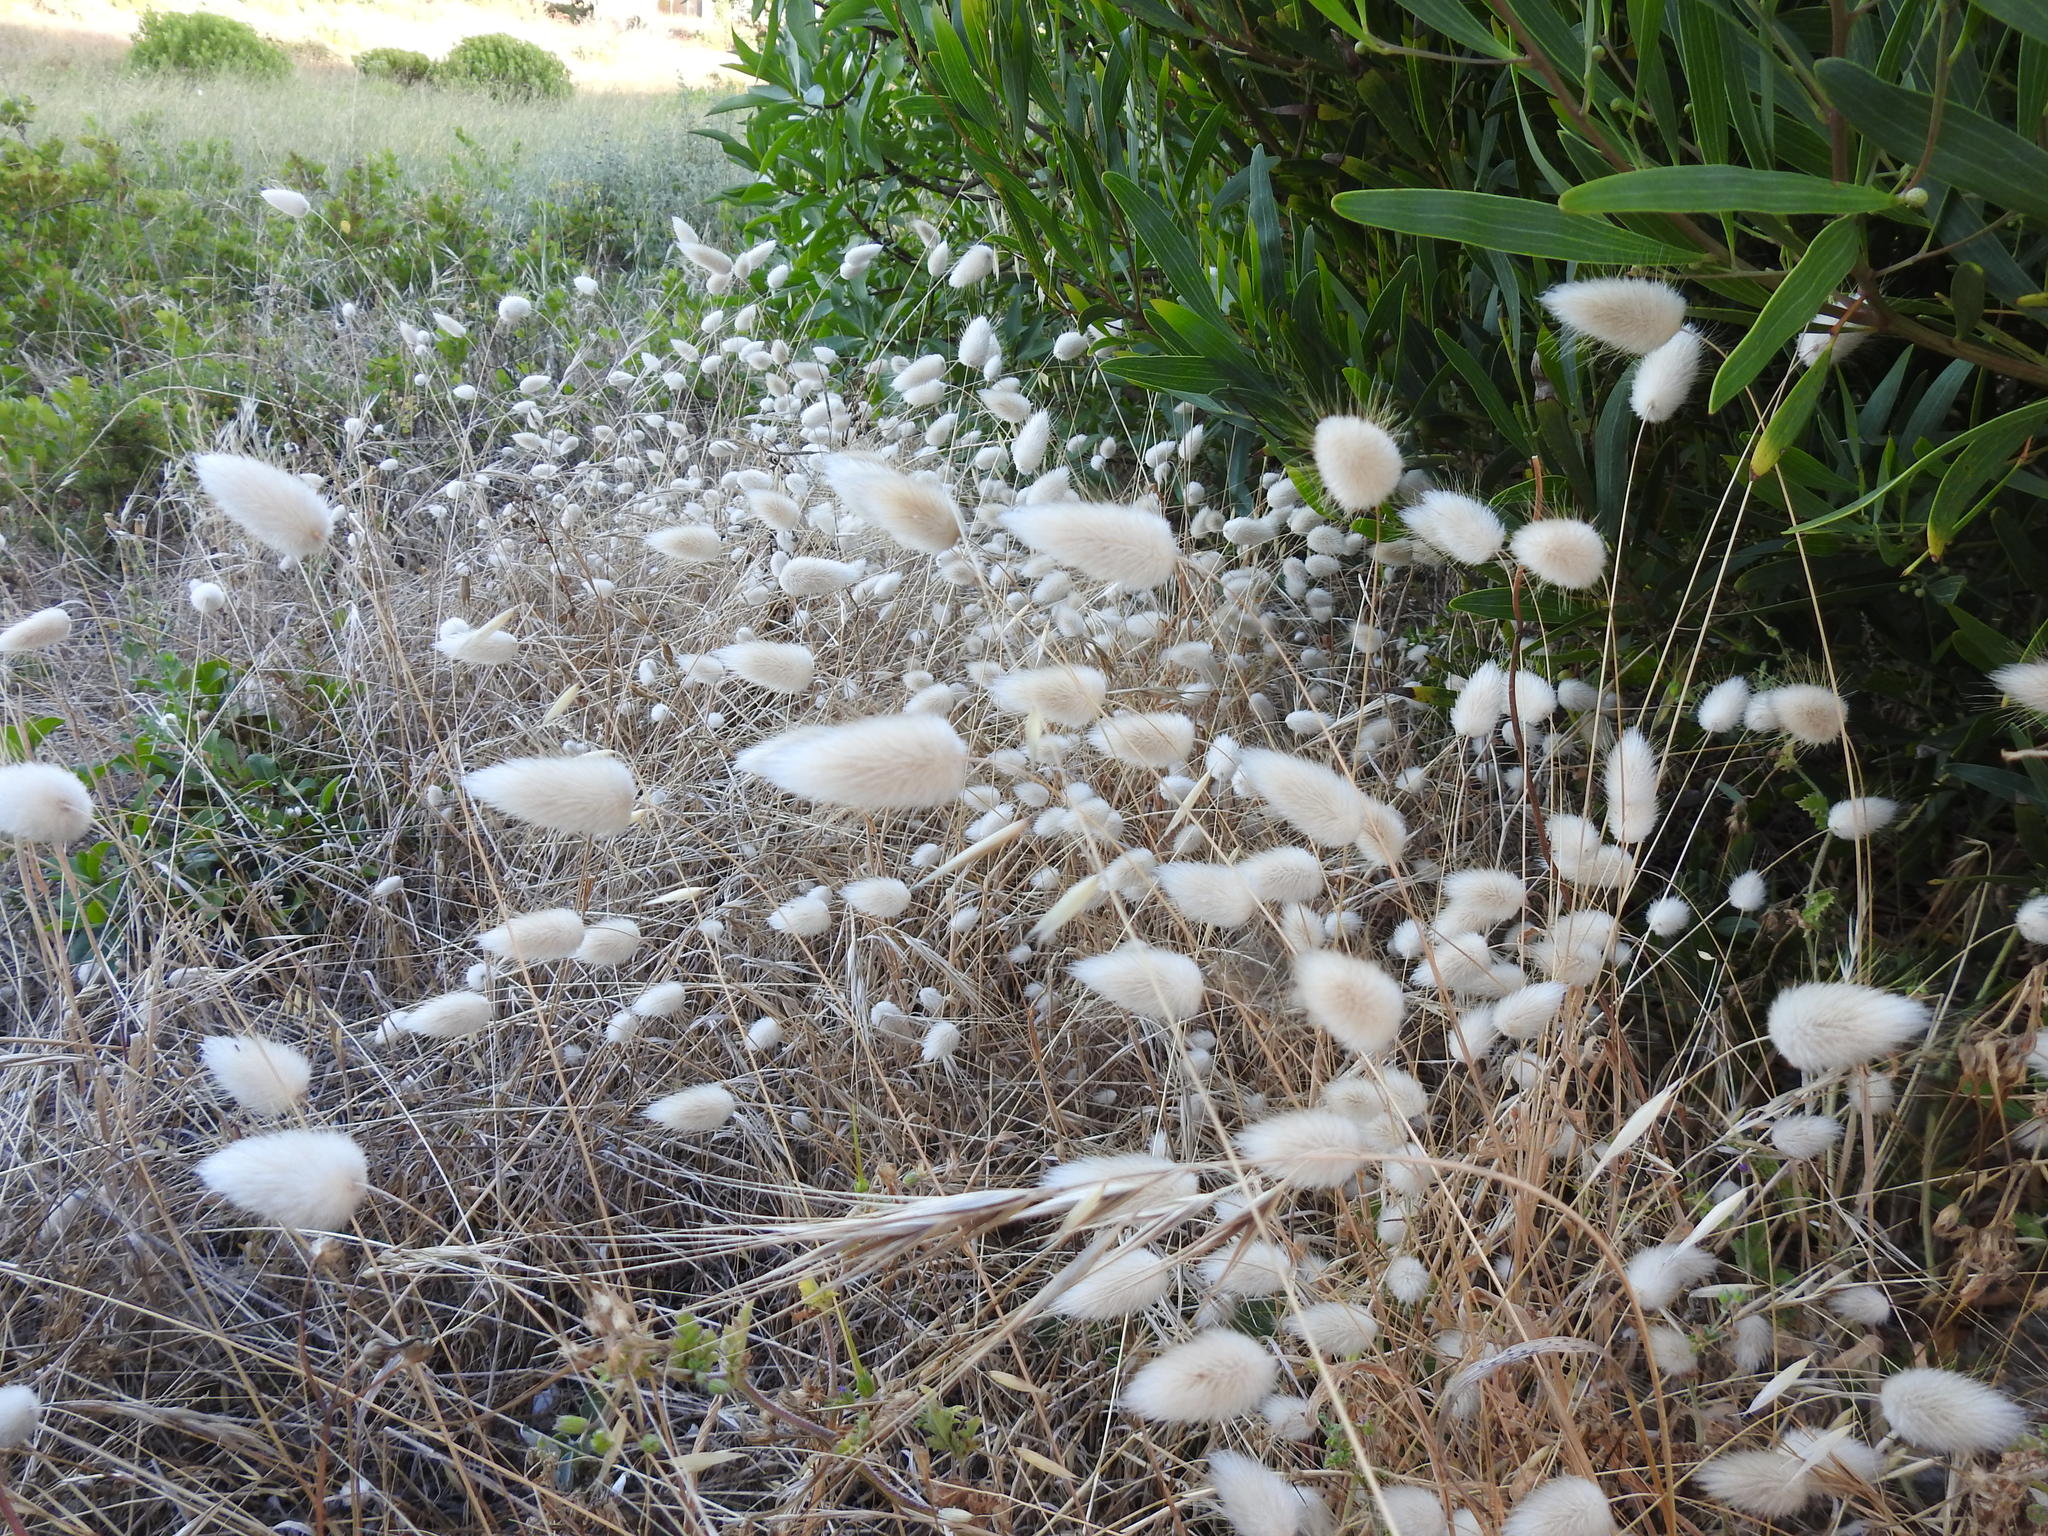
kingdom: Plantae
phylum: Tracheophyta
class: Liliopsida
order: Poales
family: Poaceae
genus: Lagurus
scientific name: Lagurus ovatus
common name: Hare's-tail
